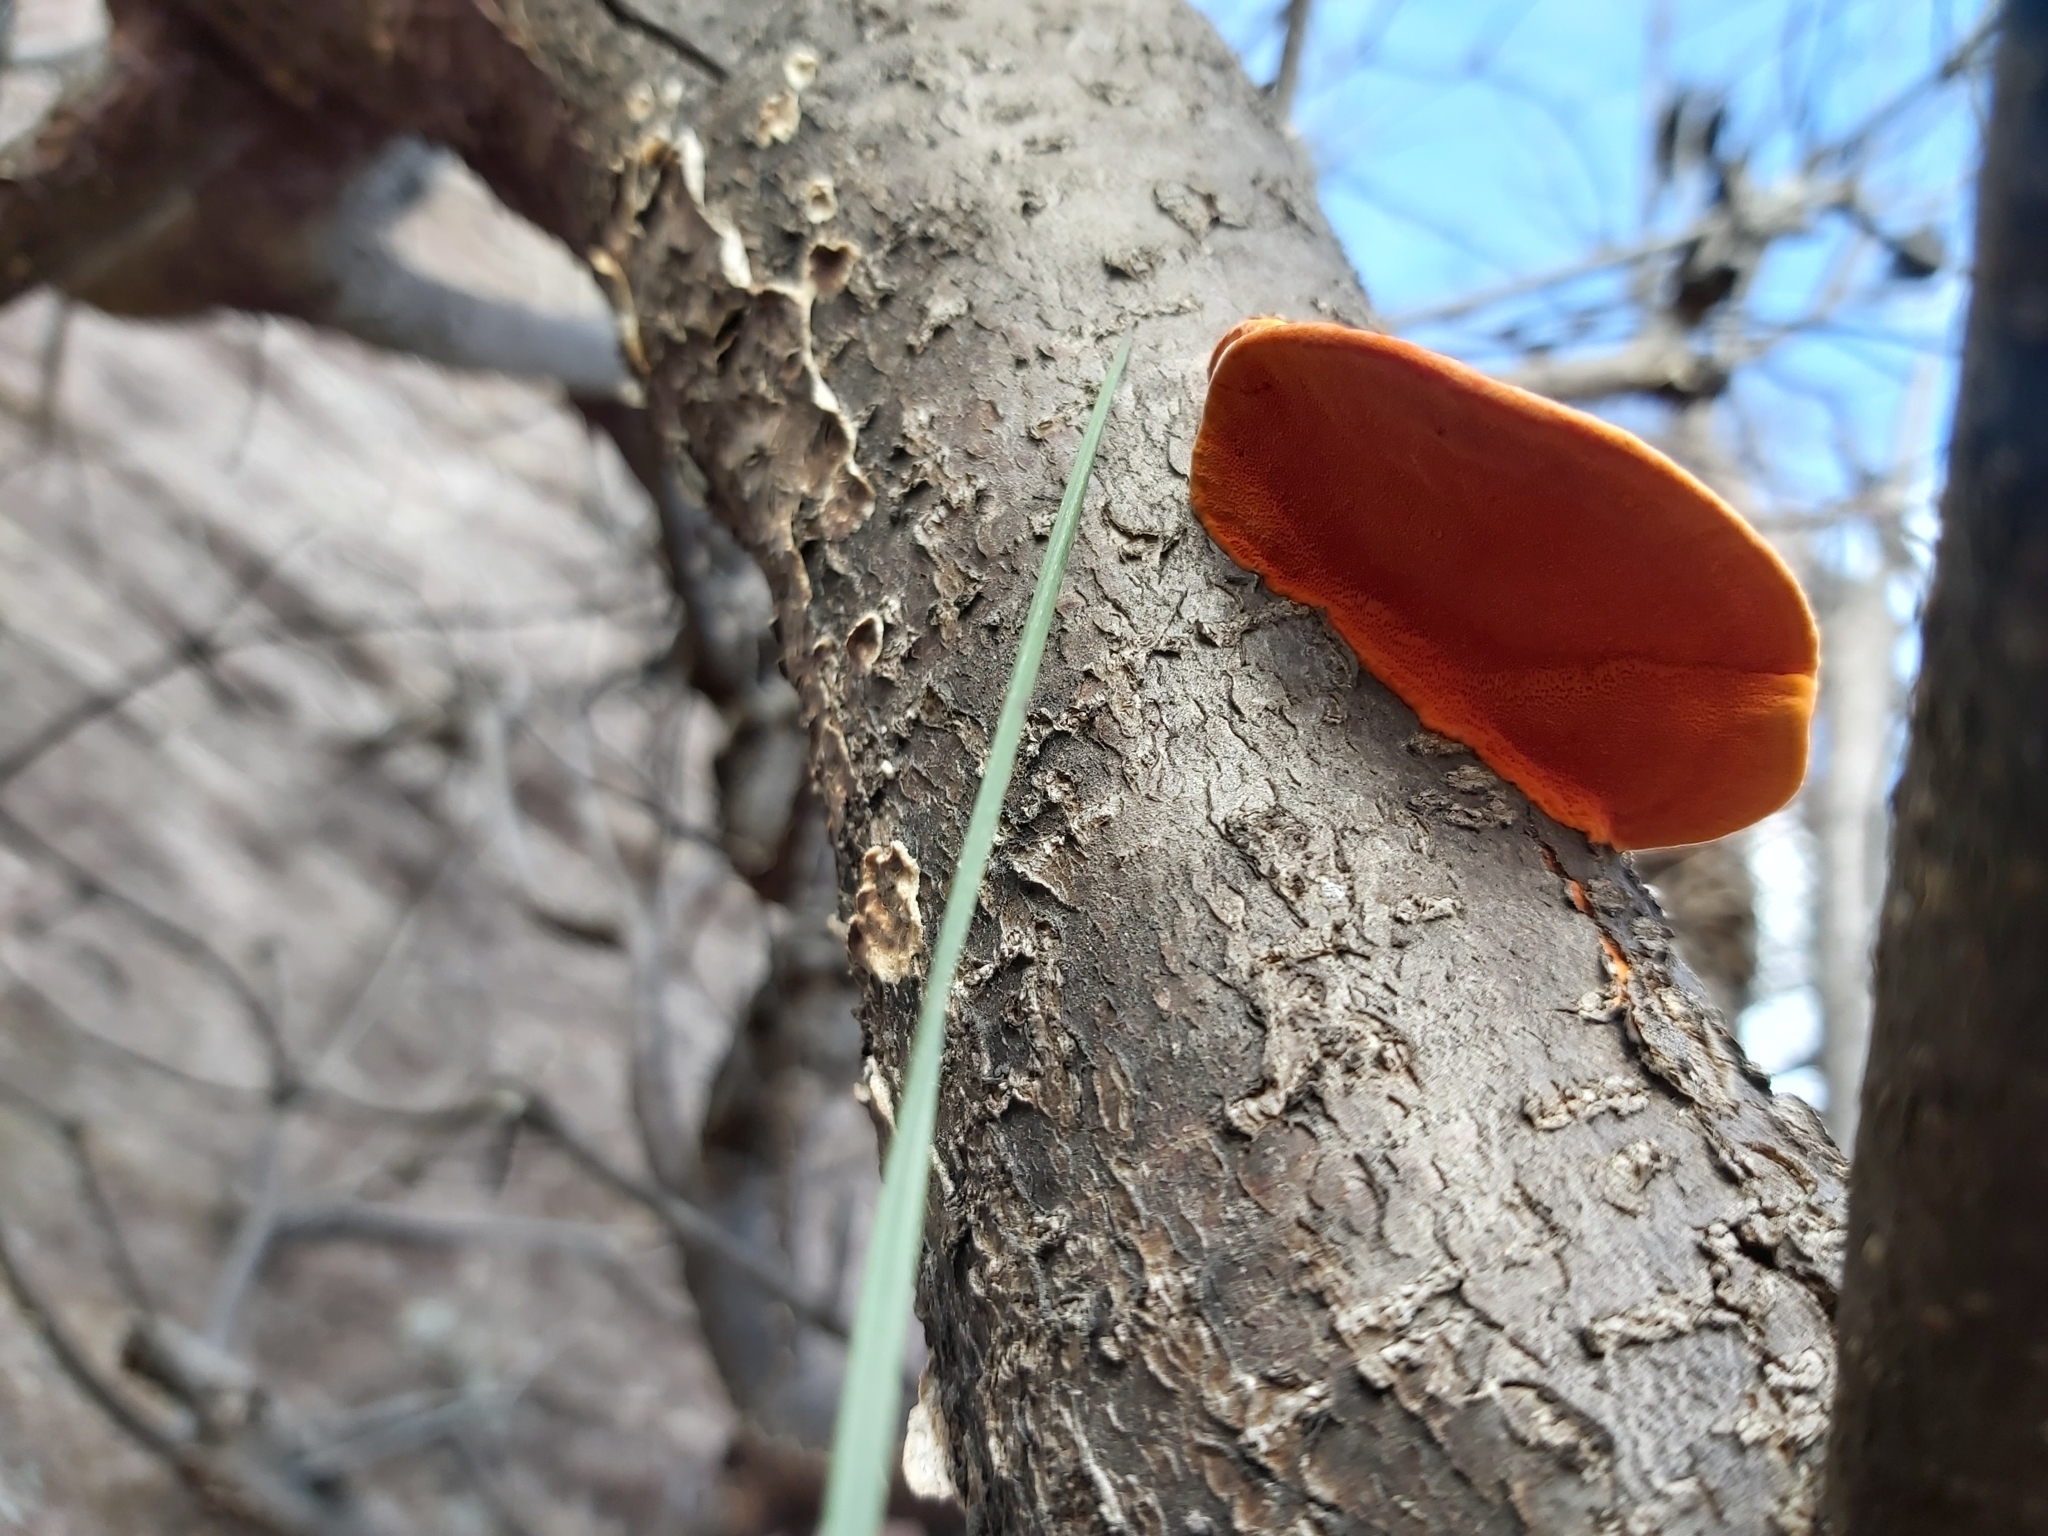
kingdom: Fungi
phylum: Basidiomycota
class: Agaricomycetes
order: Polyporales
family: Polyporaceae
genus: Trametes
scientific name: Trametes coccinea
